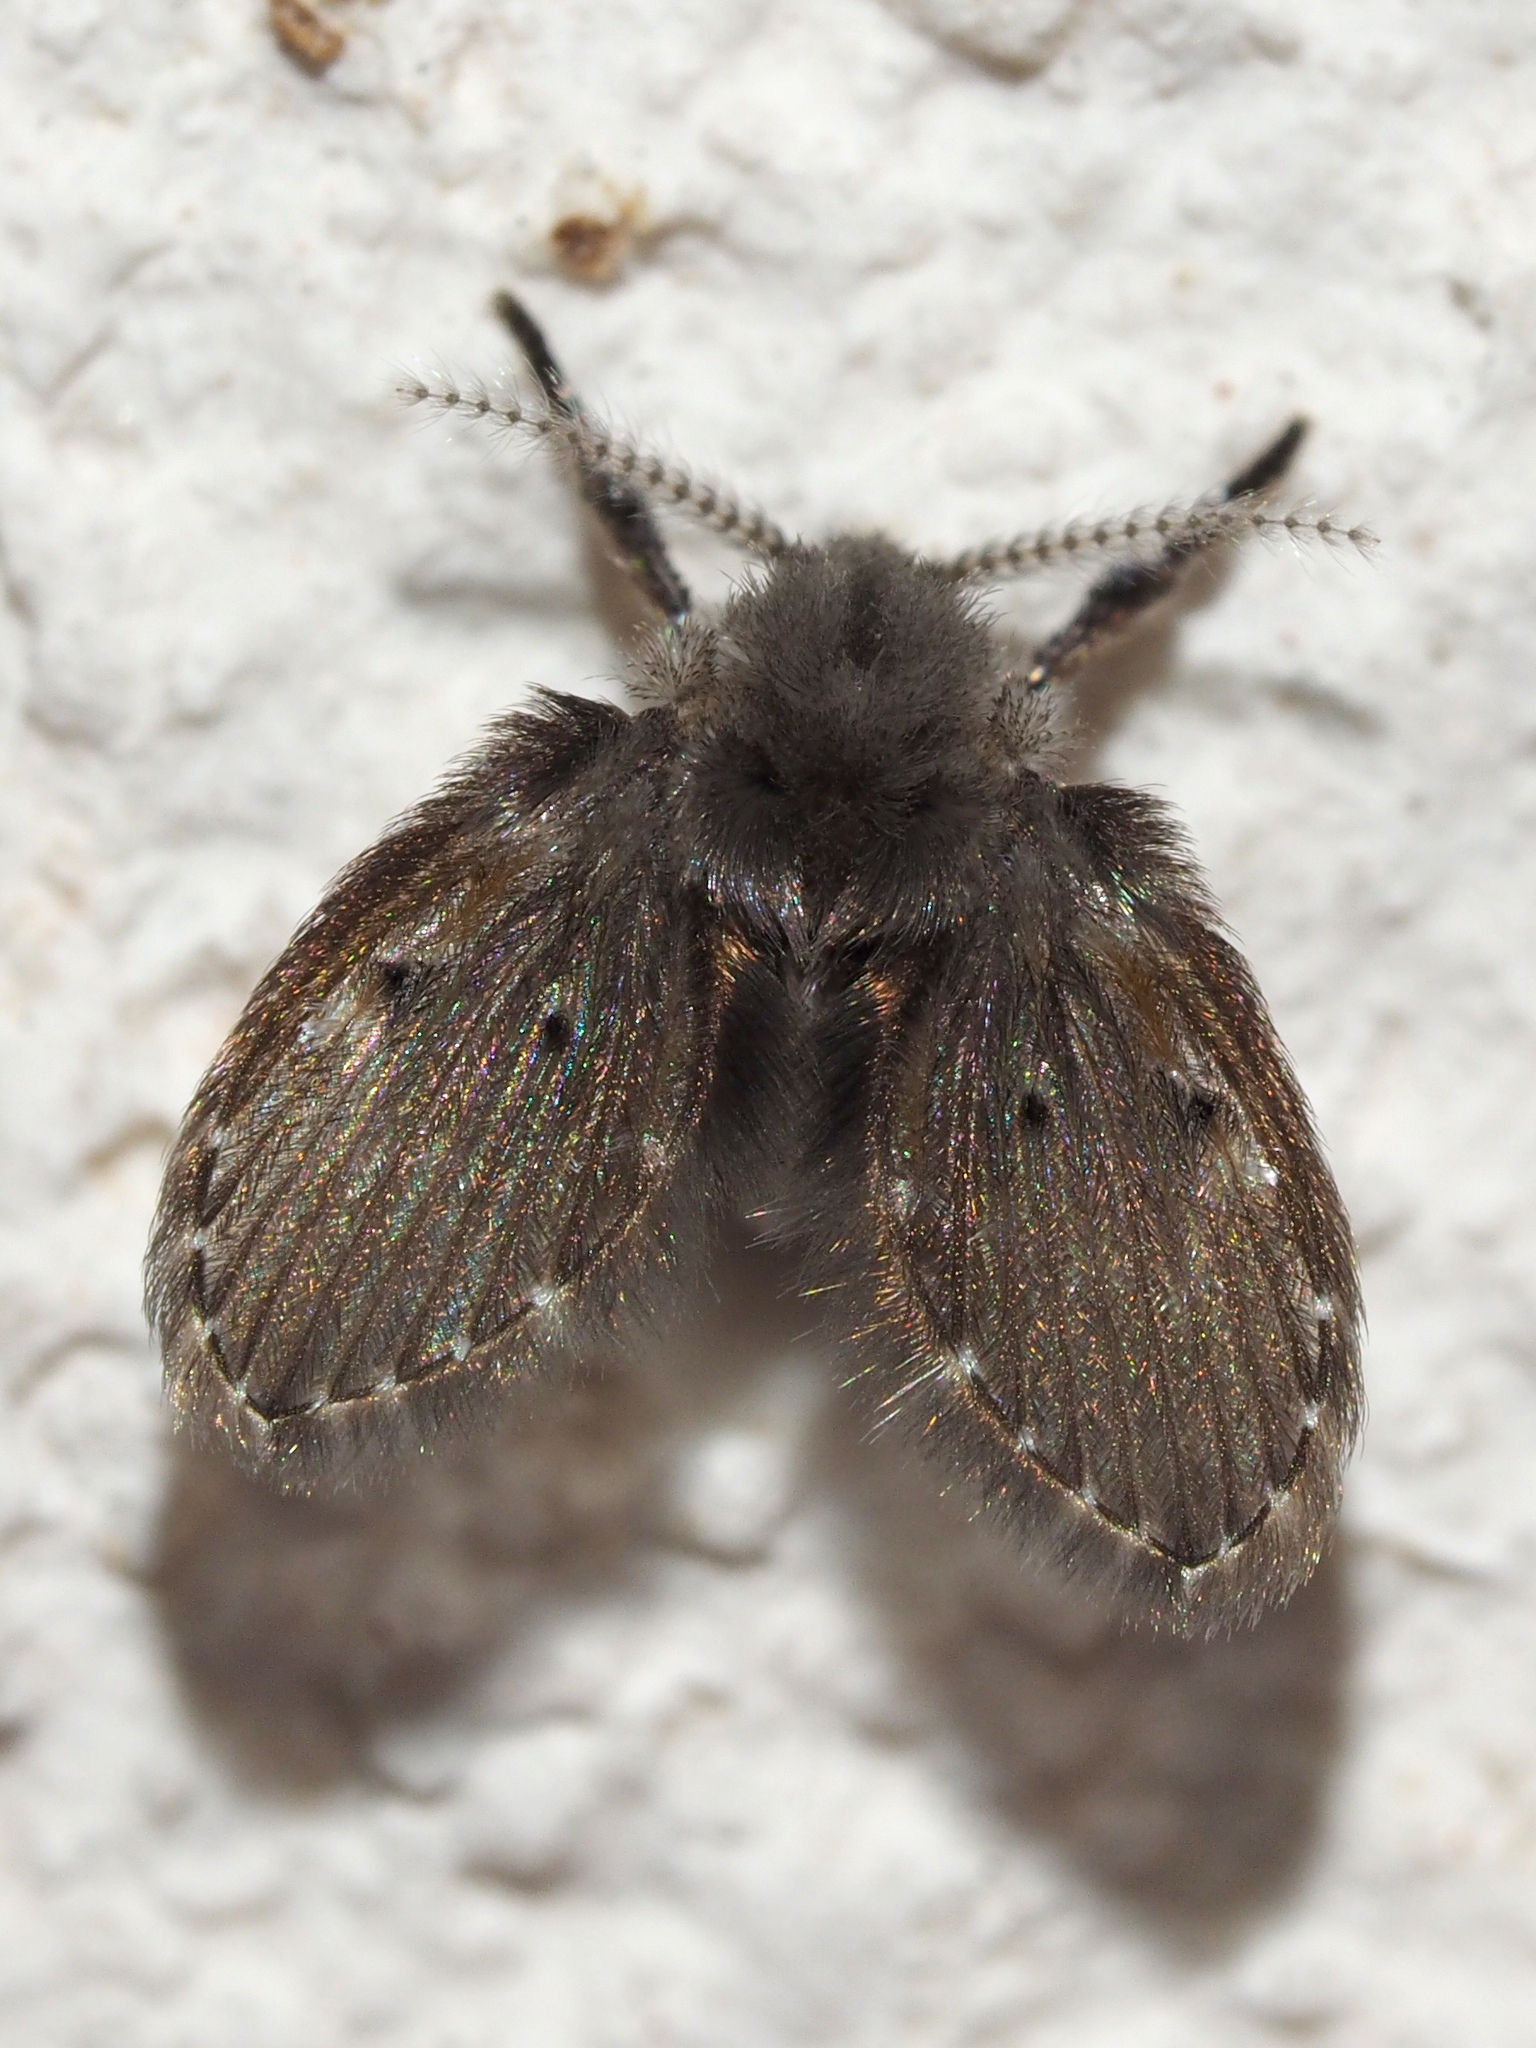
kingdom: Animalia
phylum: Arthropoda
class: Insecta
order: Diptera
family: Psychodidae
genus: Clogmia
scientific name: Clogmia albipunctatus
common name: White-spotted moth fly
